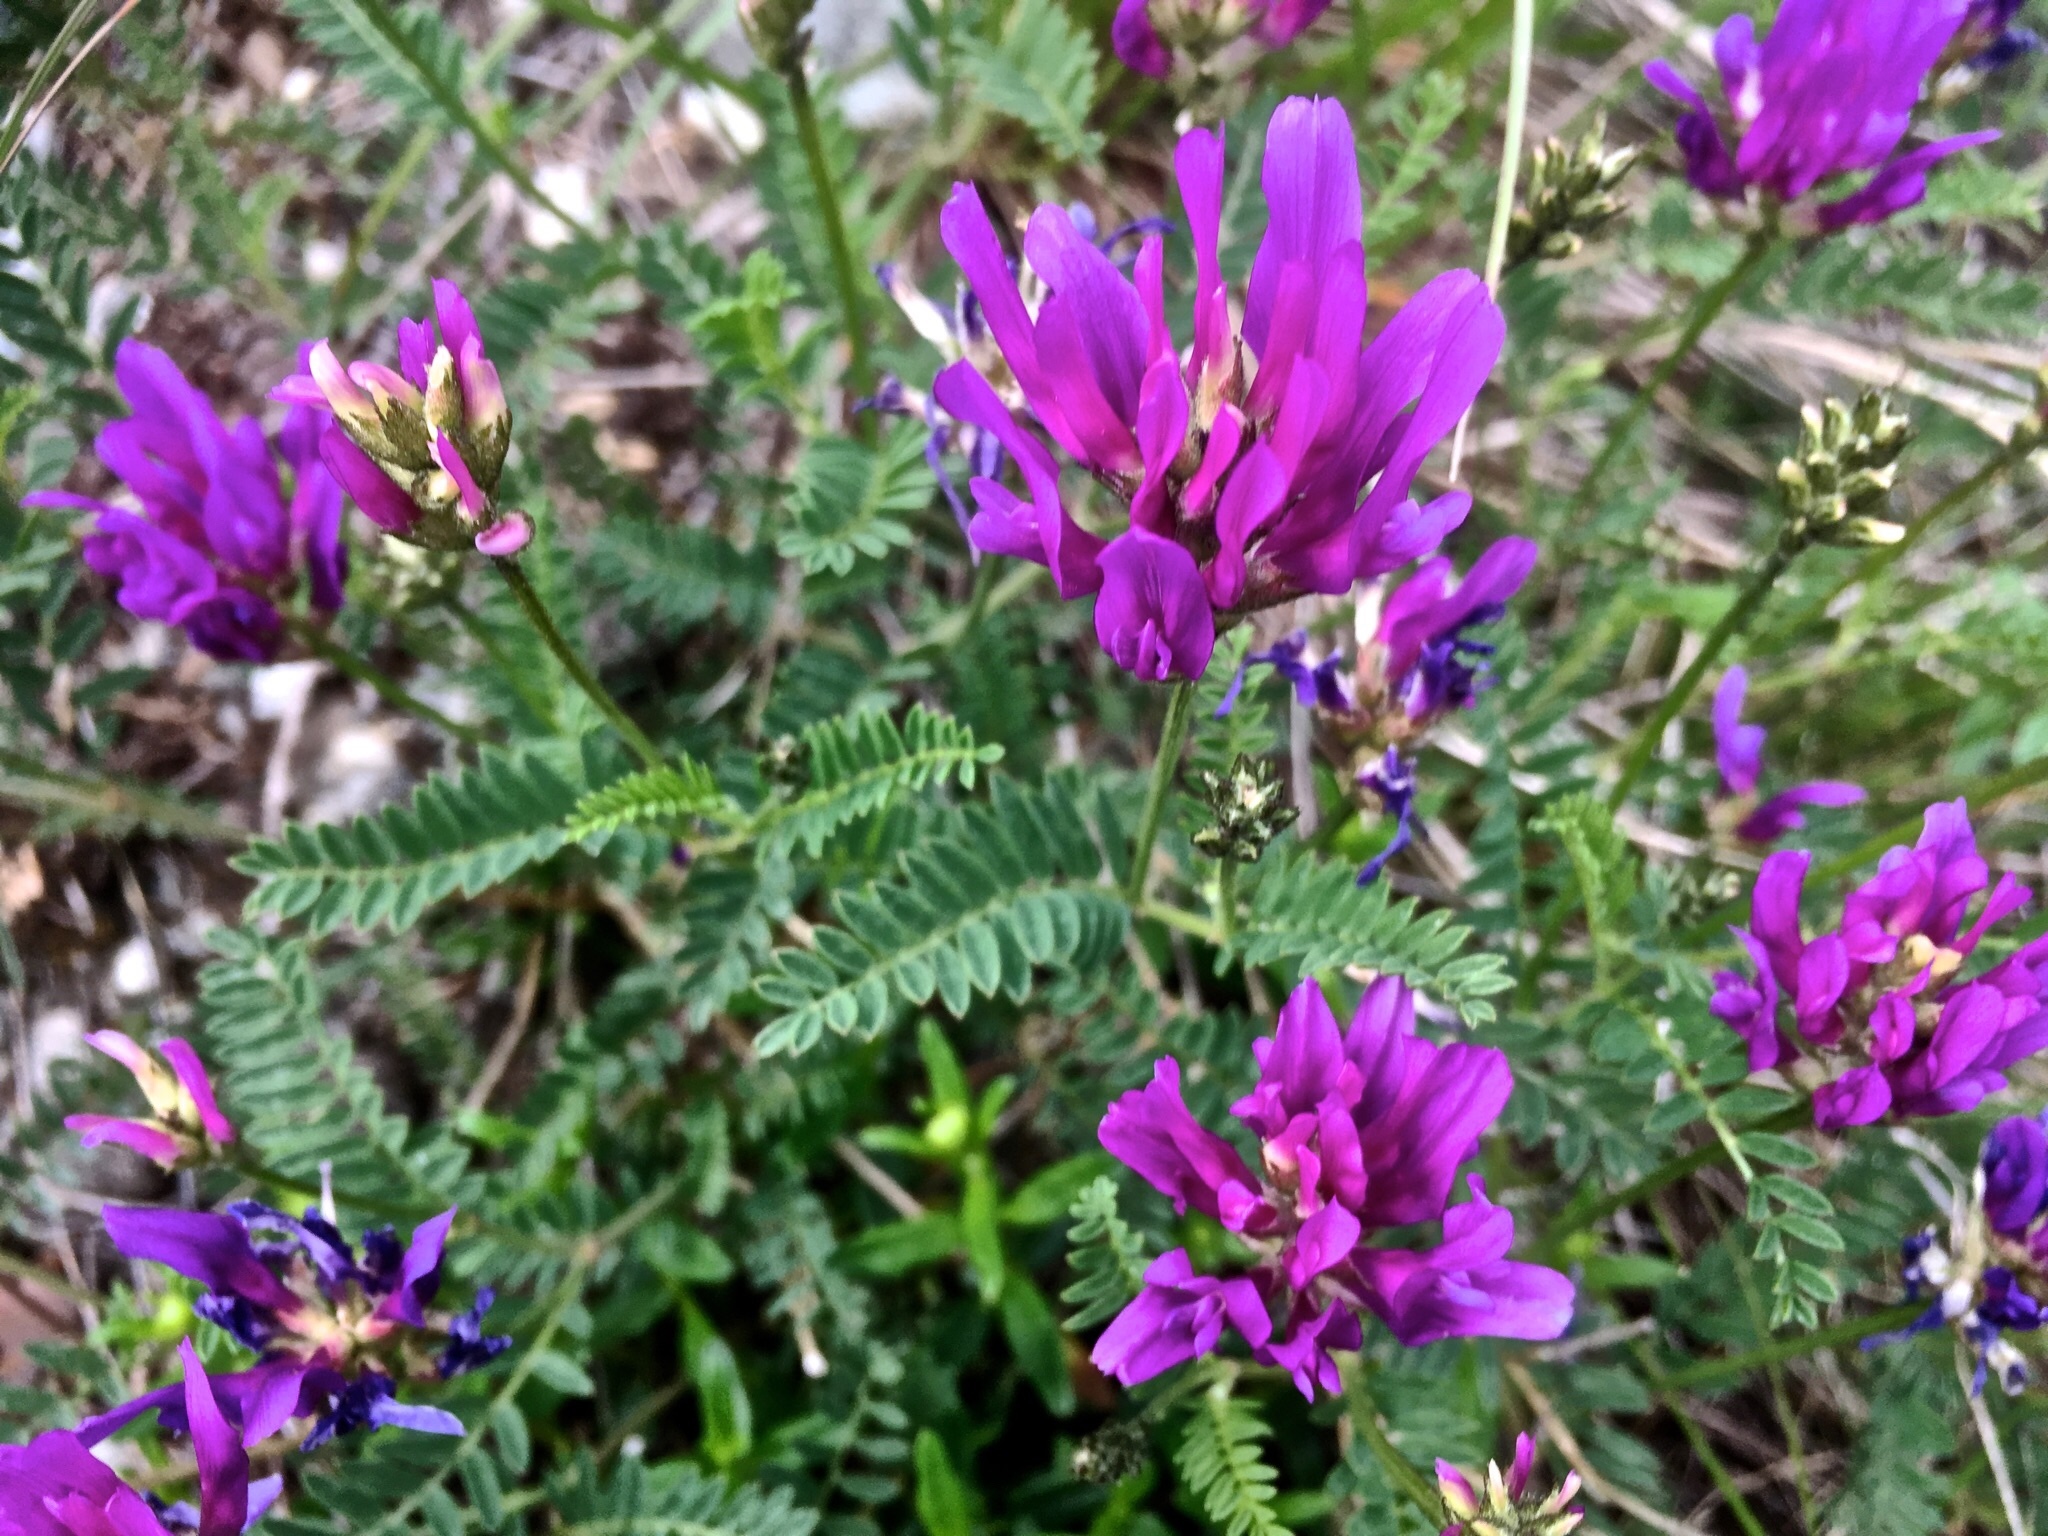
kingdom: Plantae
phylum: Tracheophyta
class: Magnoliopsida
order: Fabales
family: Fabaceae
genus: Astragalus
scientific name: Astragalus onobrychis
